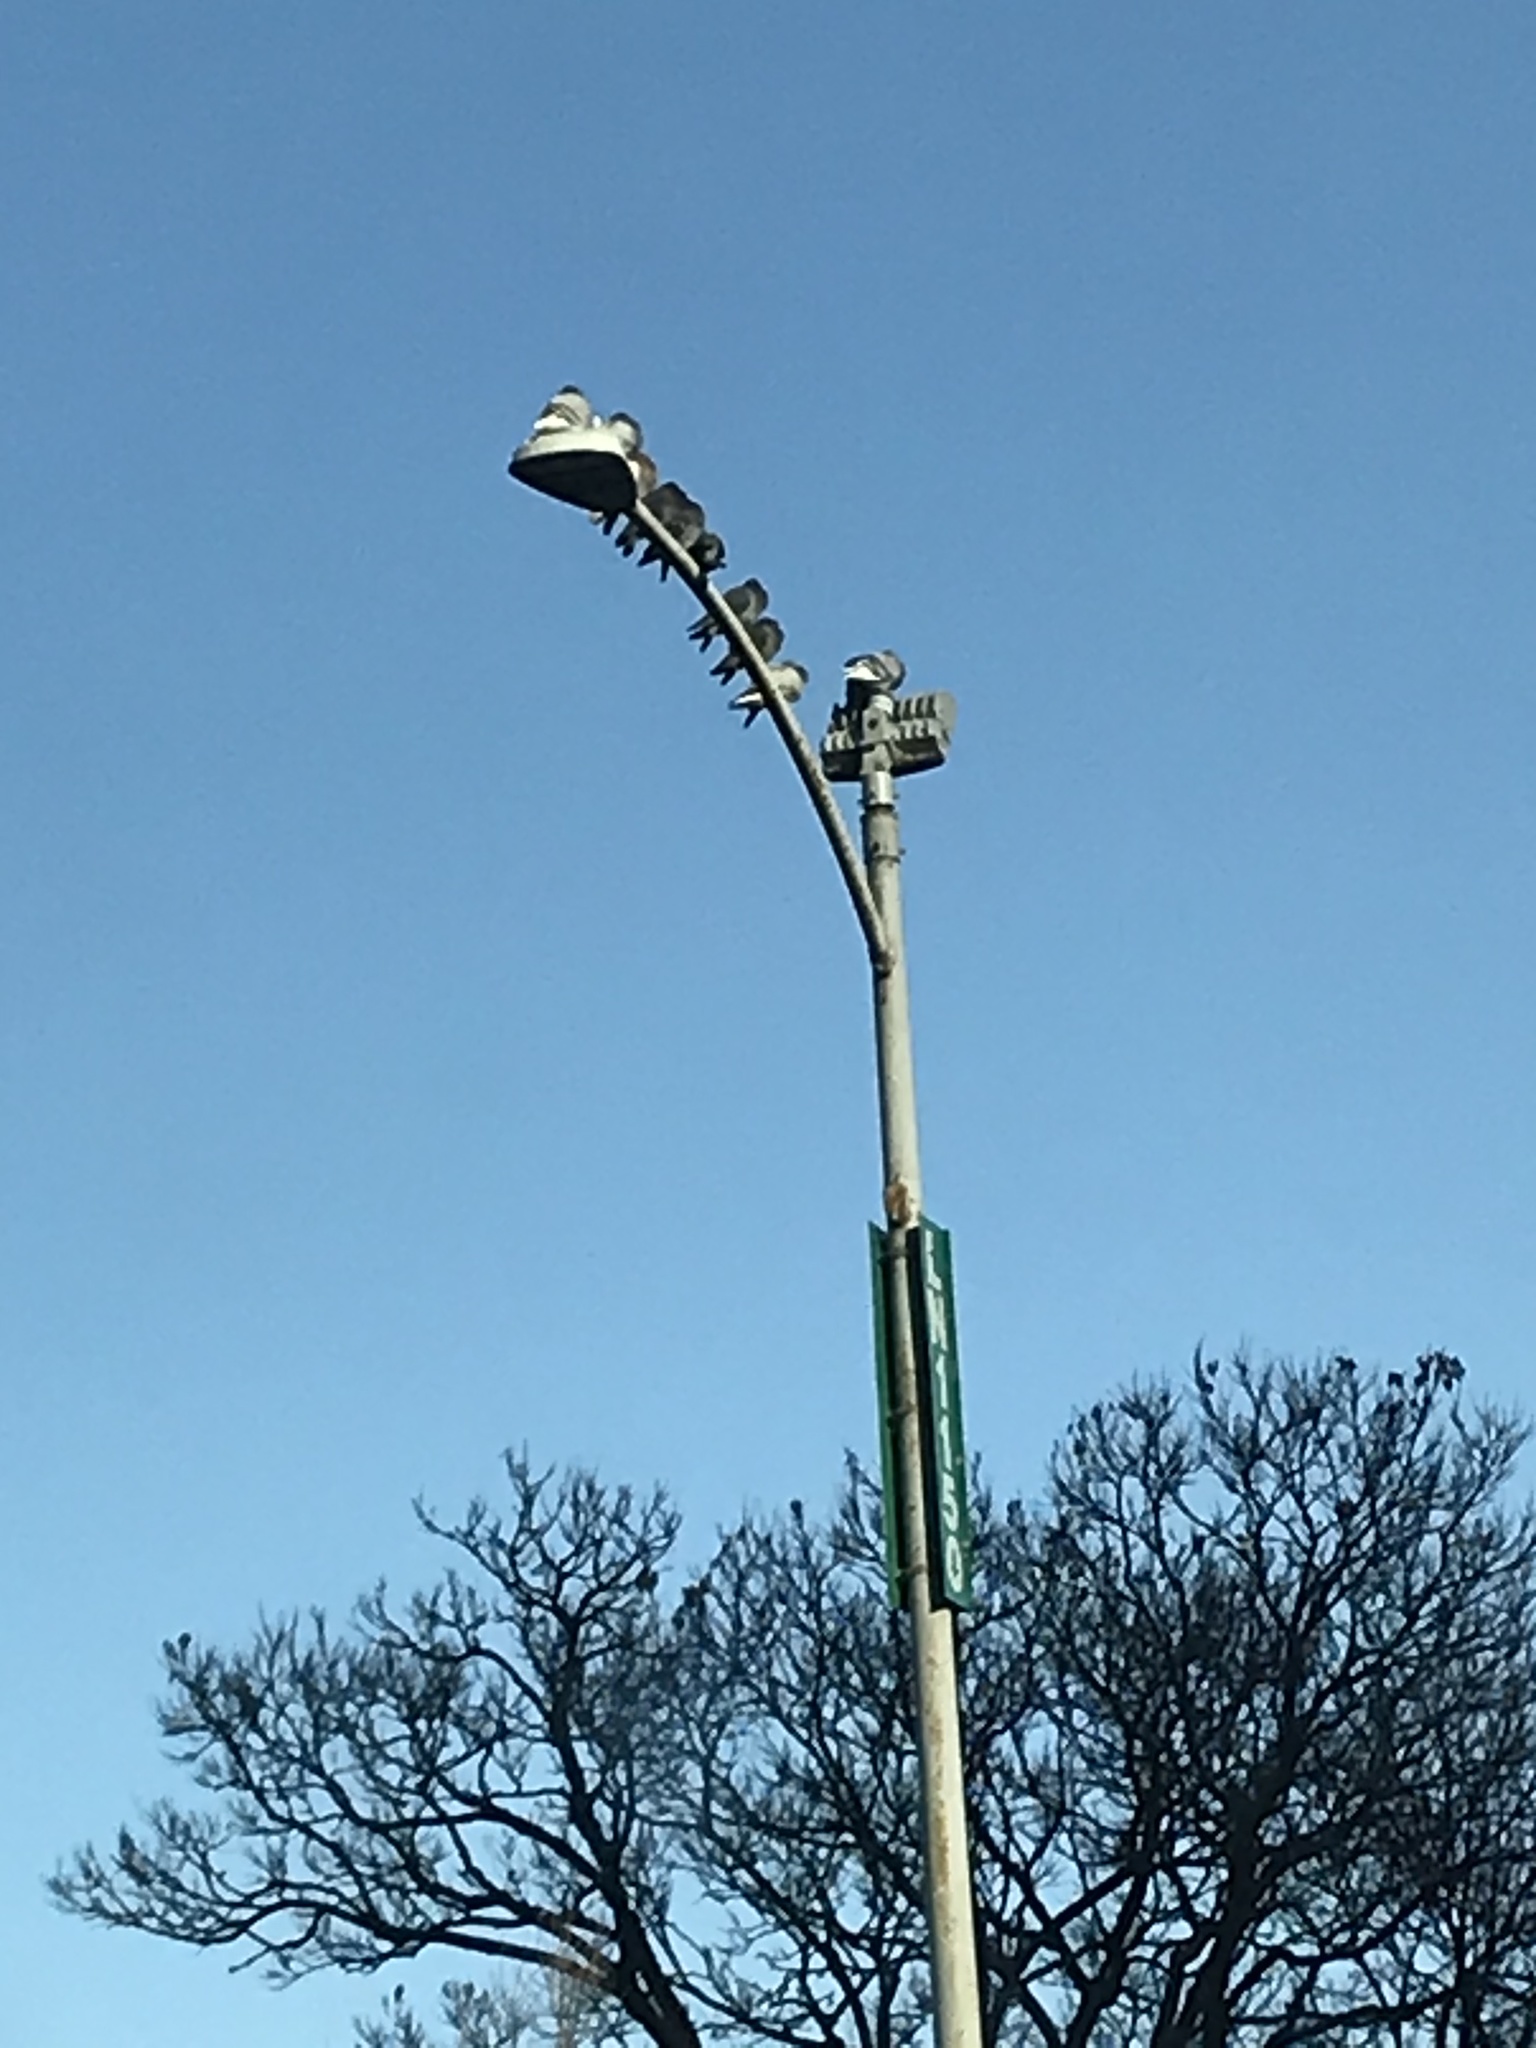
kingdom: Animalia
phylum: Chordata
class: Aves
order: Columbiformes
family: Columbidae
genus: Columba
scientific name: Columba livia
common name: Rock pigeon
